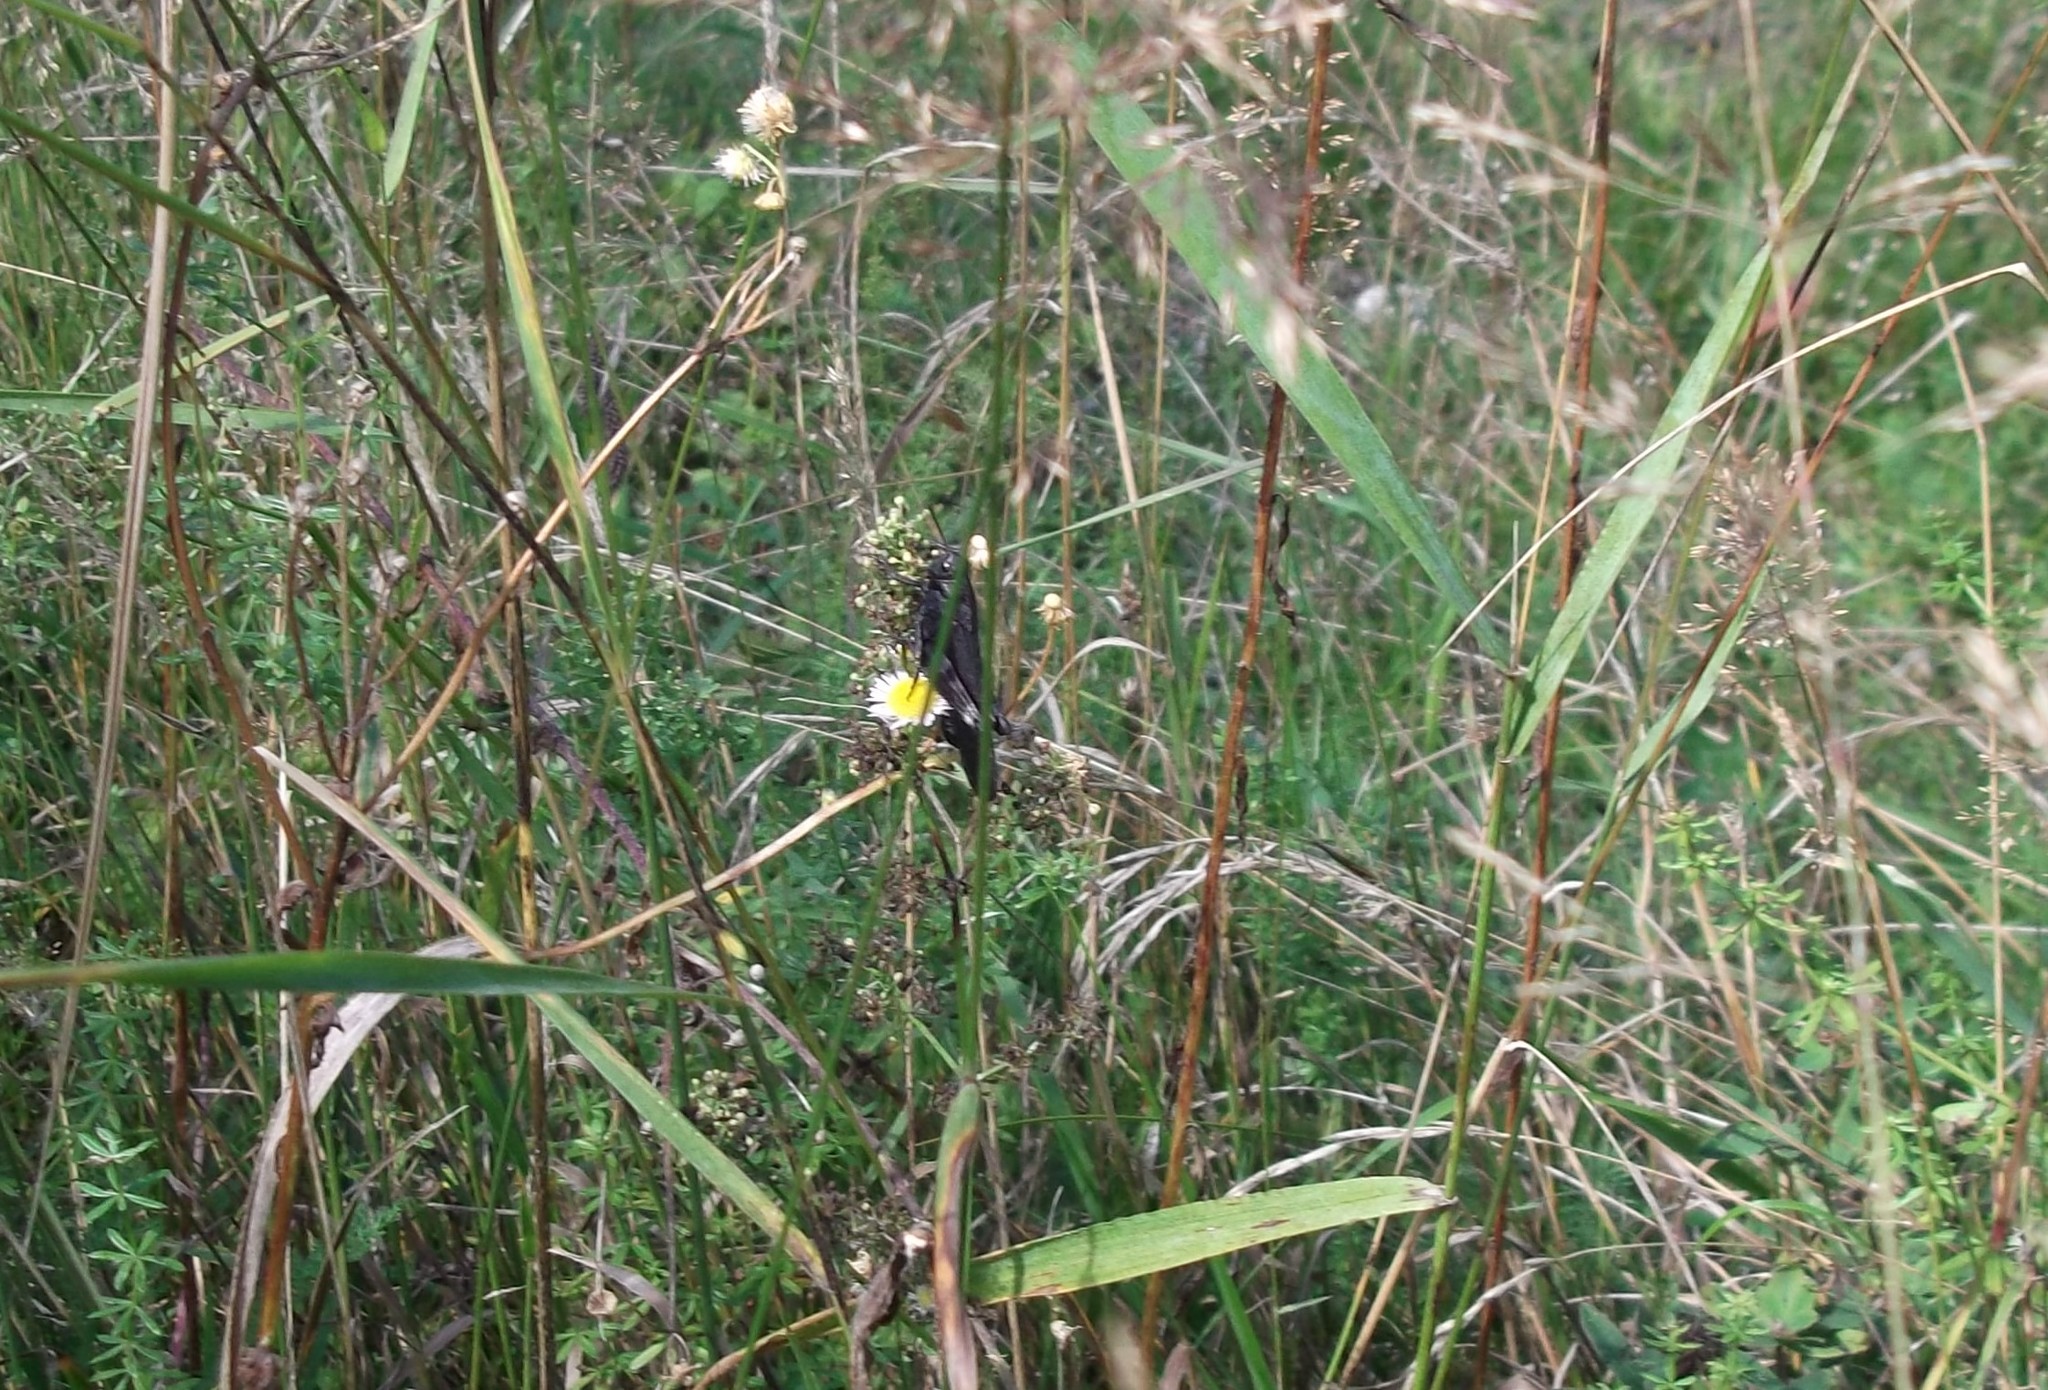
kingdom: Animalia
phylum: Arthropoda
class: Insecta
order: Orthoptera
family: Acrididae
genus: Psophus
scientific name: Psophus stridulus
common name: Rattle grasshopper
